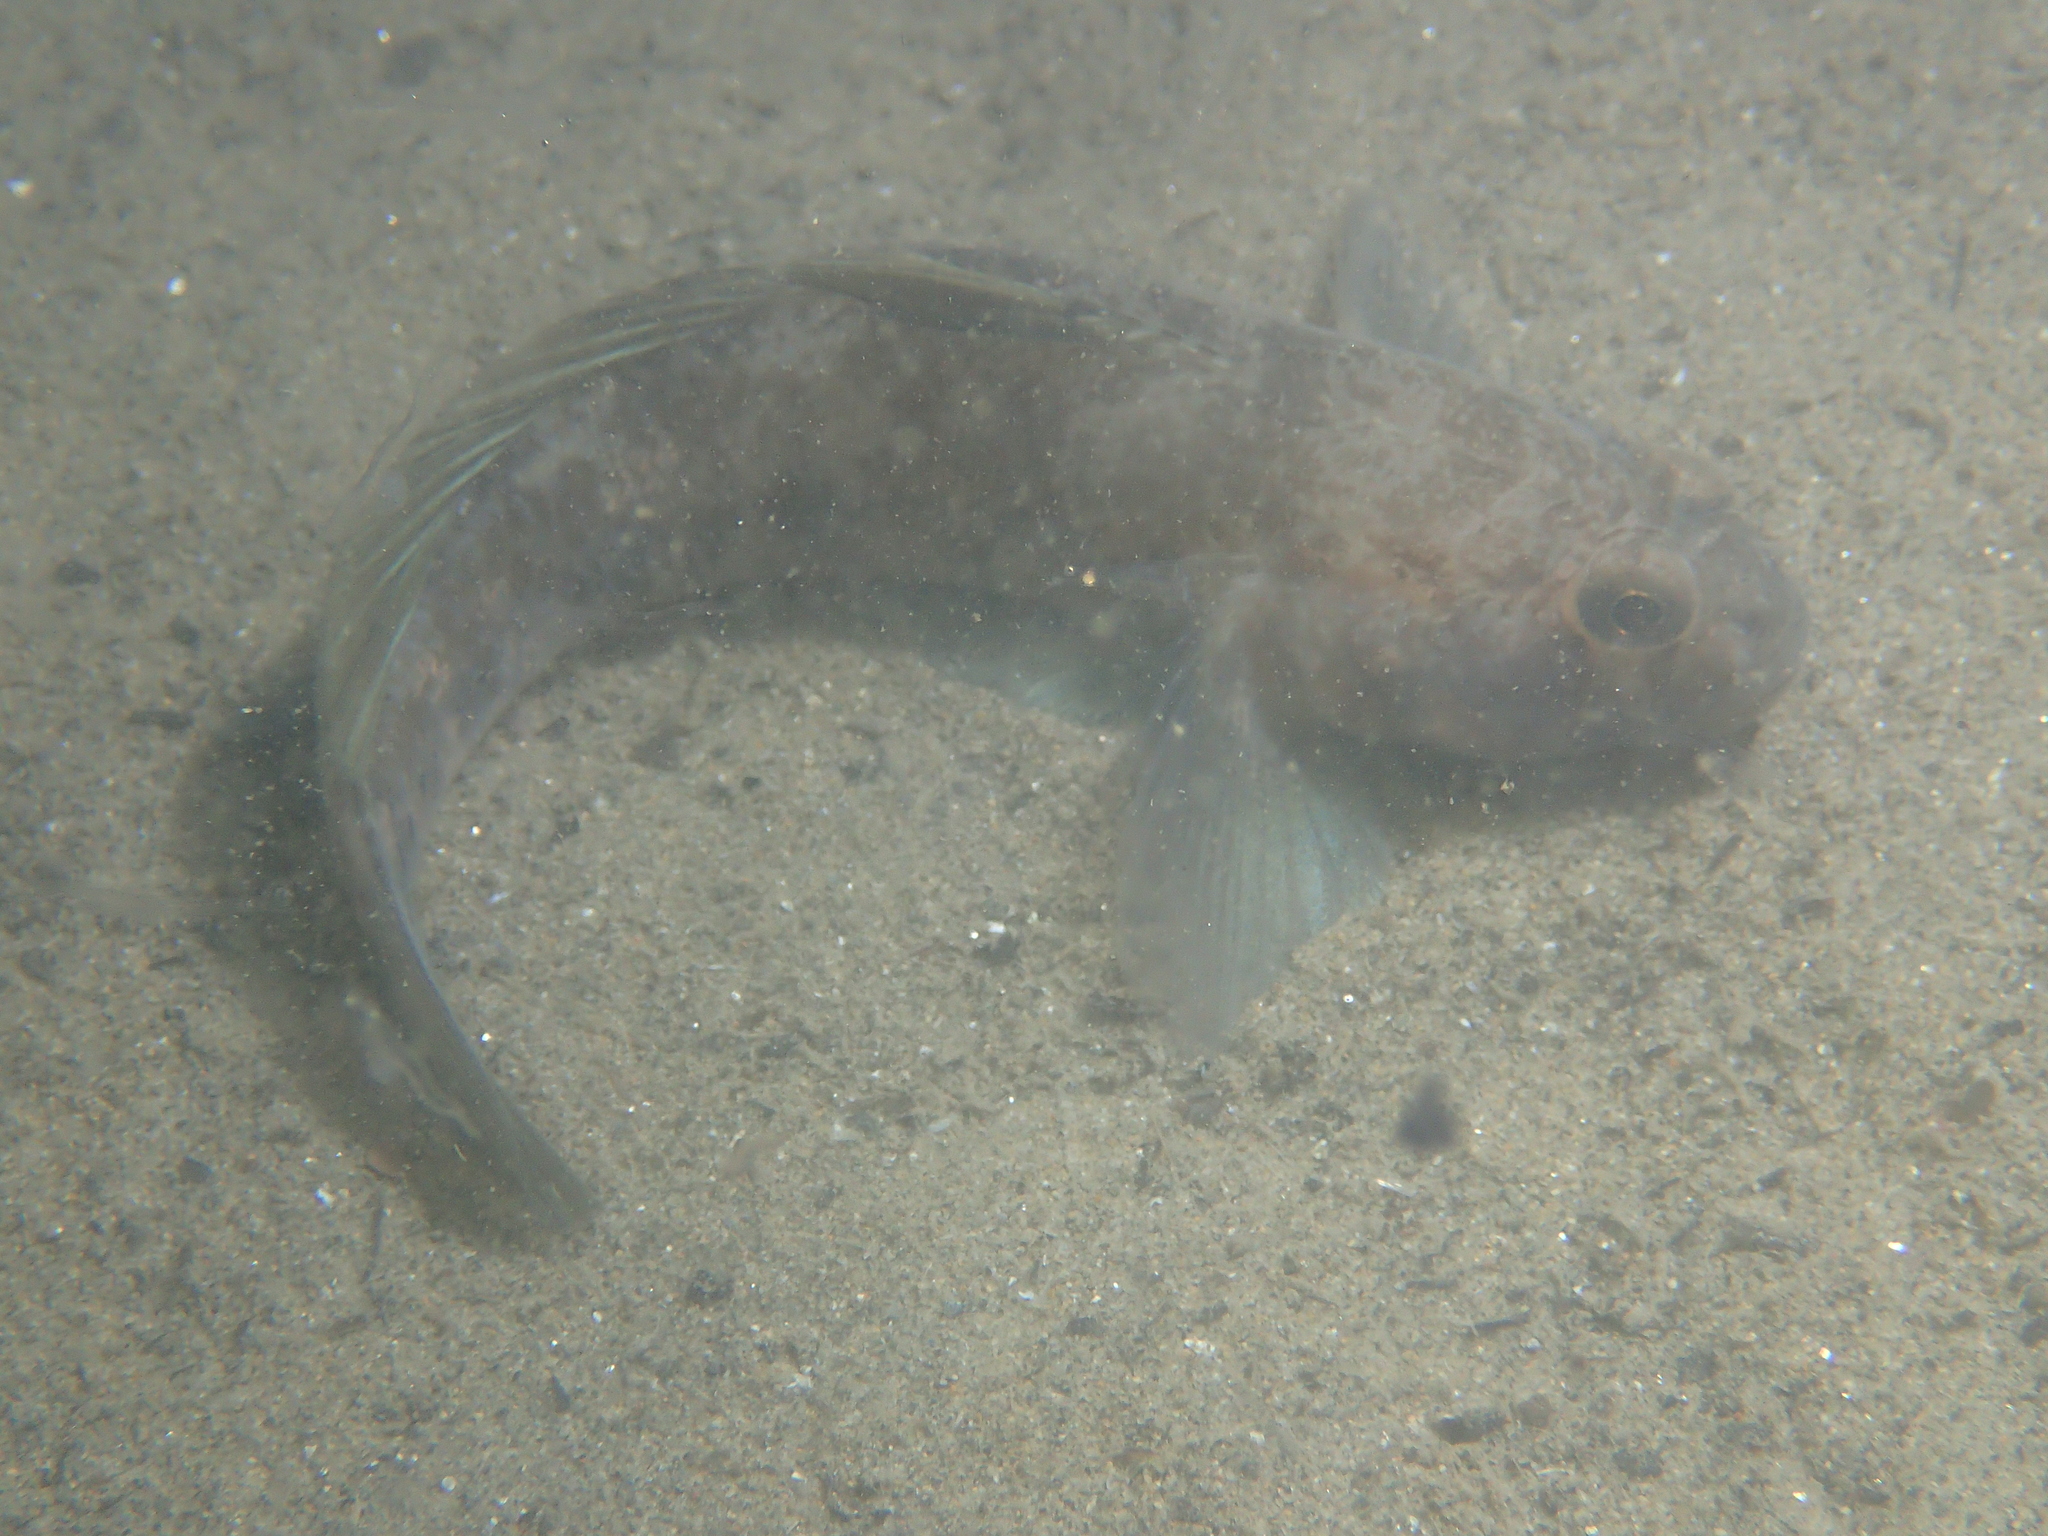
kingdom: Animalia
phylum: Chordata
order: Perciformes
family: Gobiidae
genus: Gobius
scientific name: Gobius niger
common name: Black goby
